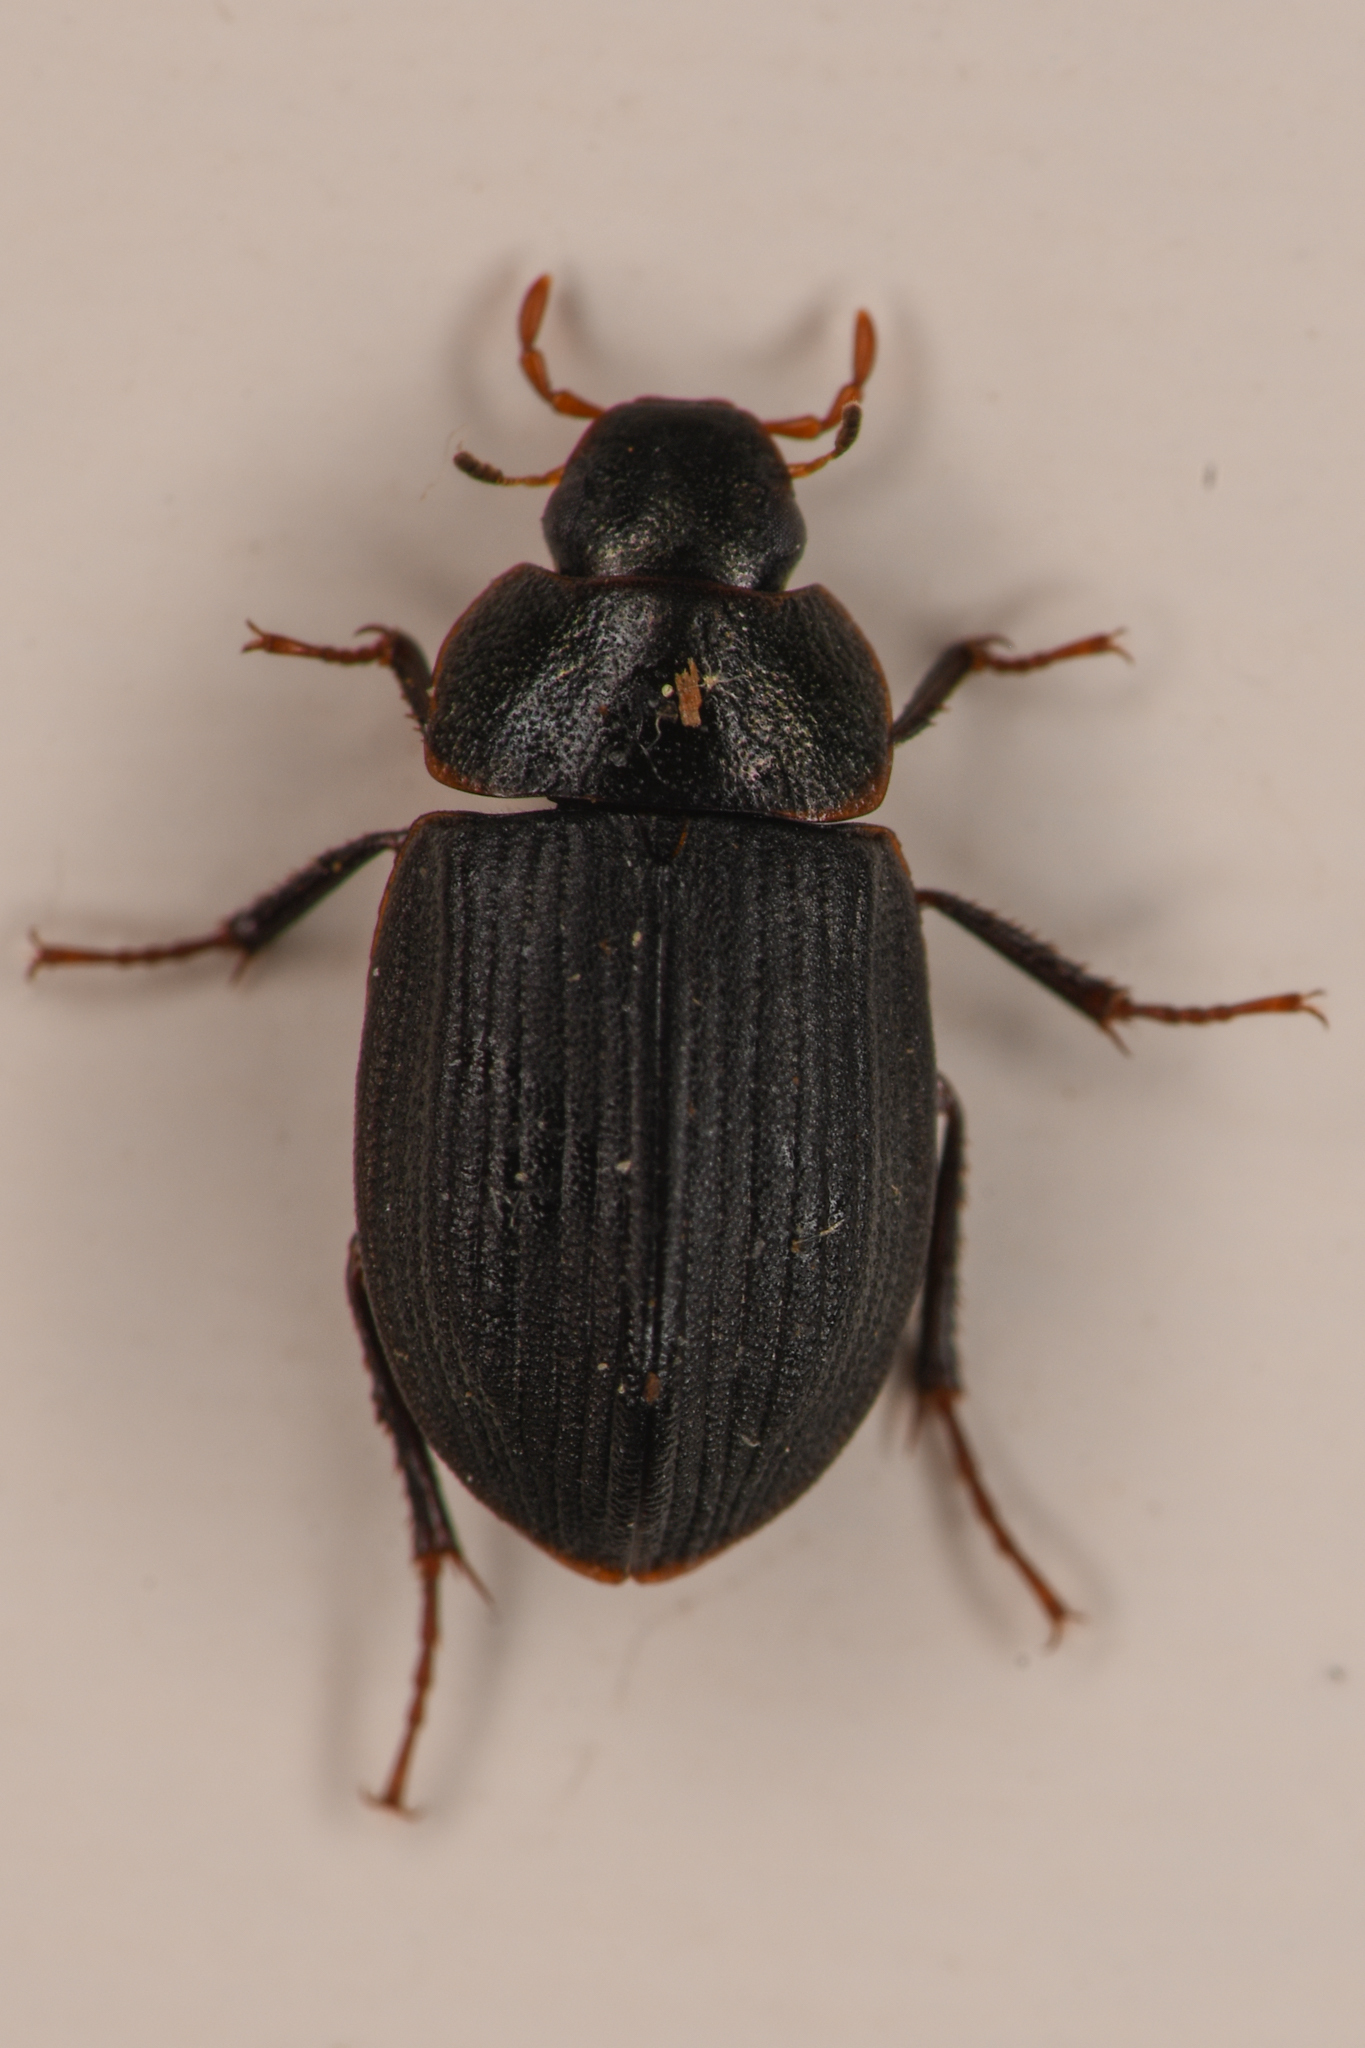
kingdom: Animalia
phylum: Arthropoda
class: Insecta
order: Coleoptera
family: Hydrophilidae
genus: Ametor
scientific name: Ametor scabrosus
